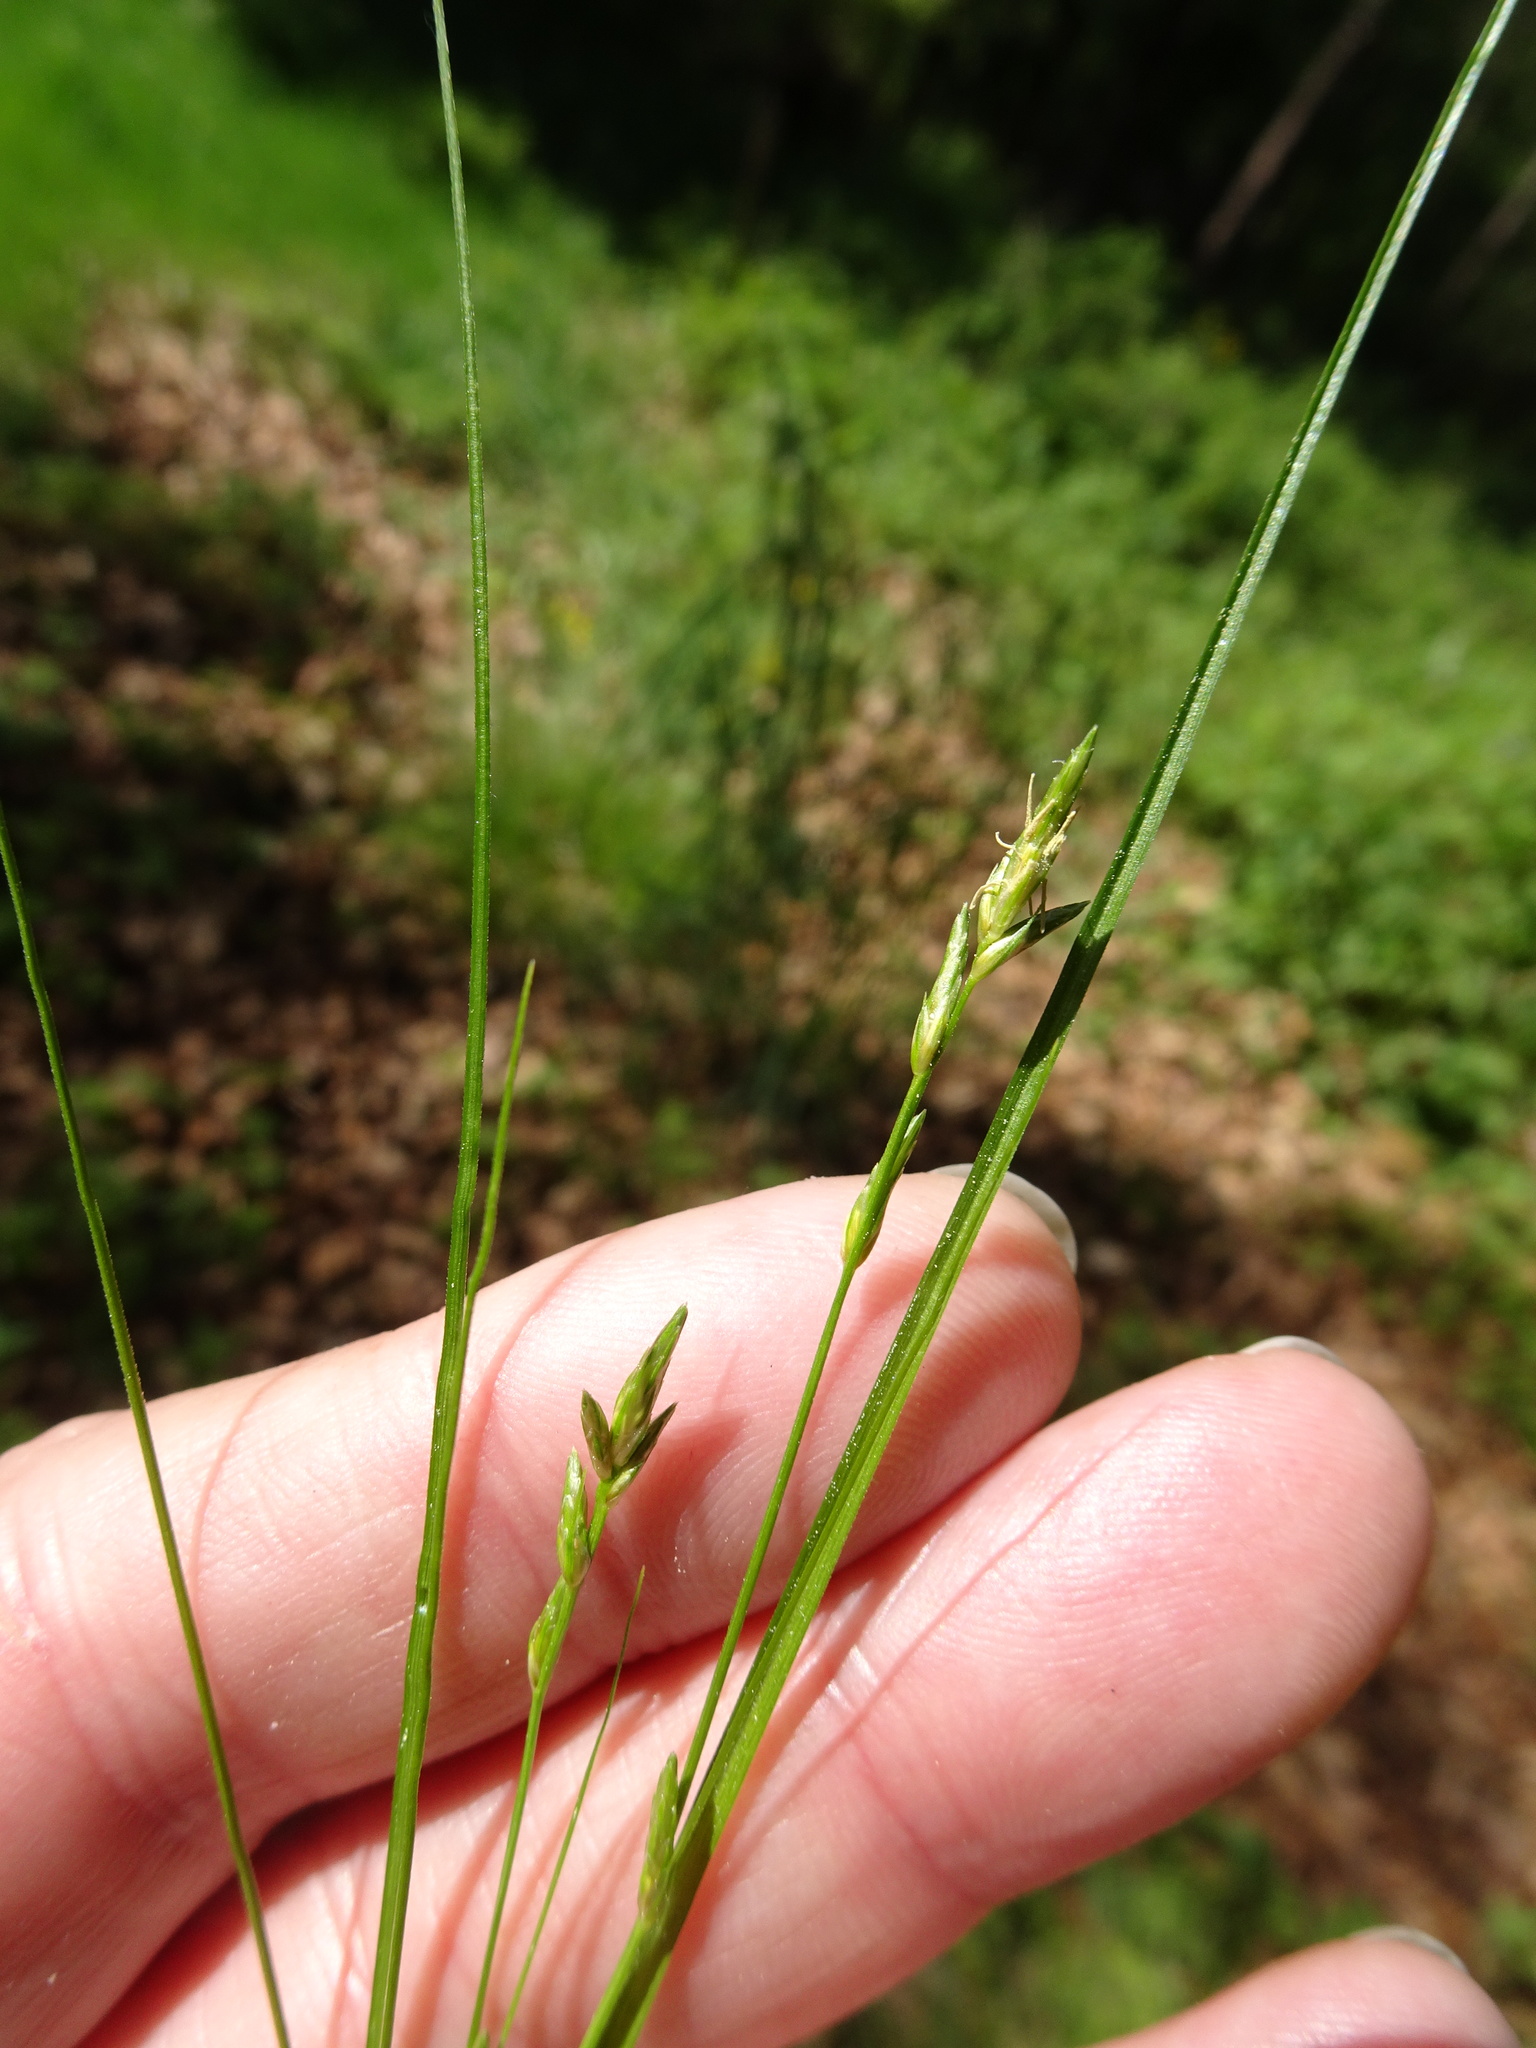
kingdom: Plantae
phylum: Tracheophyta
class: Liliopsida
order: Poales
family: Cyperaceae
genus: Carex
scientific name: Carex remota
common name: Remote sedge
